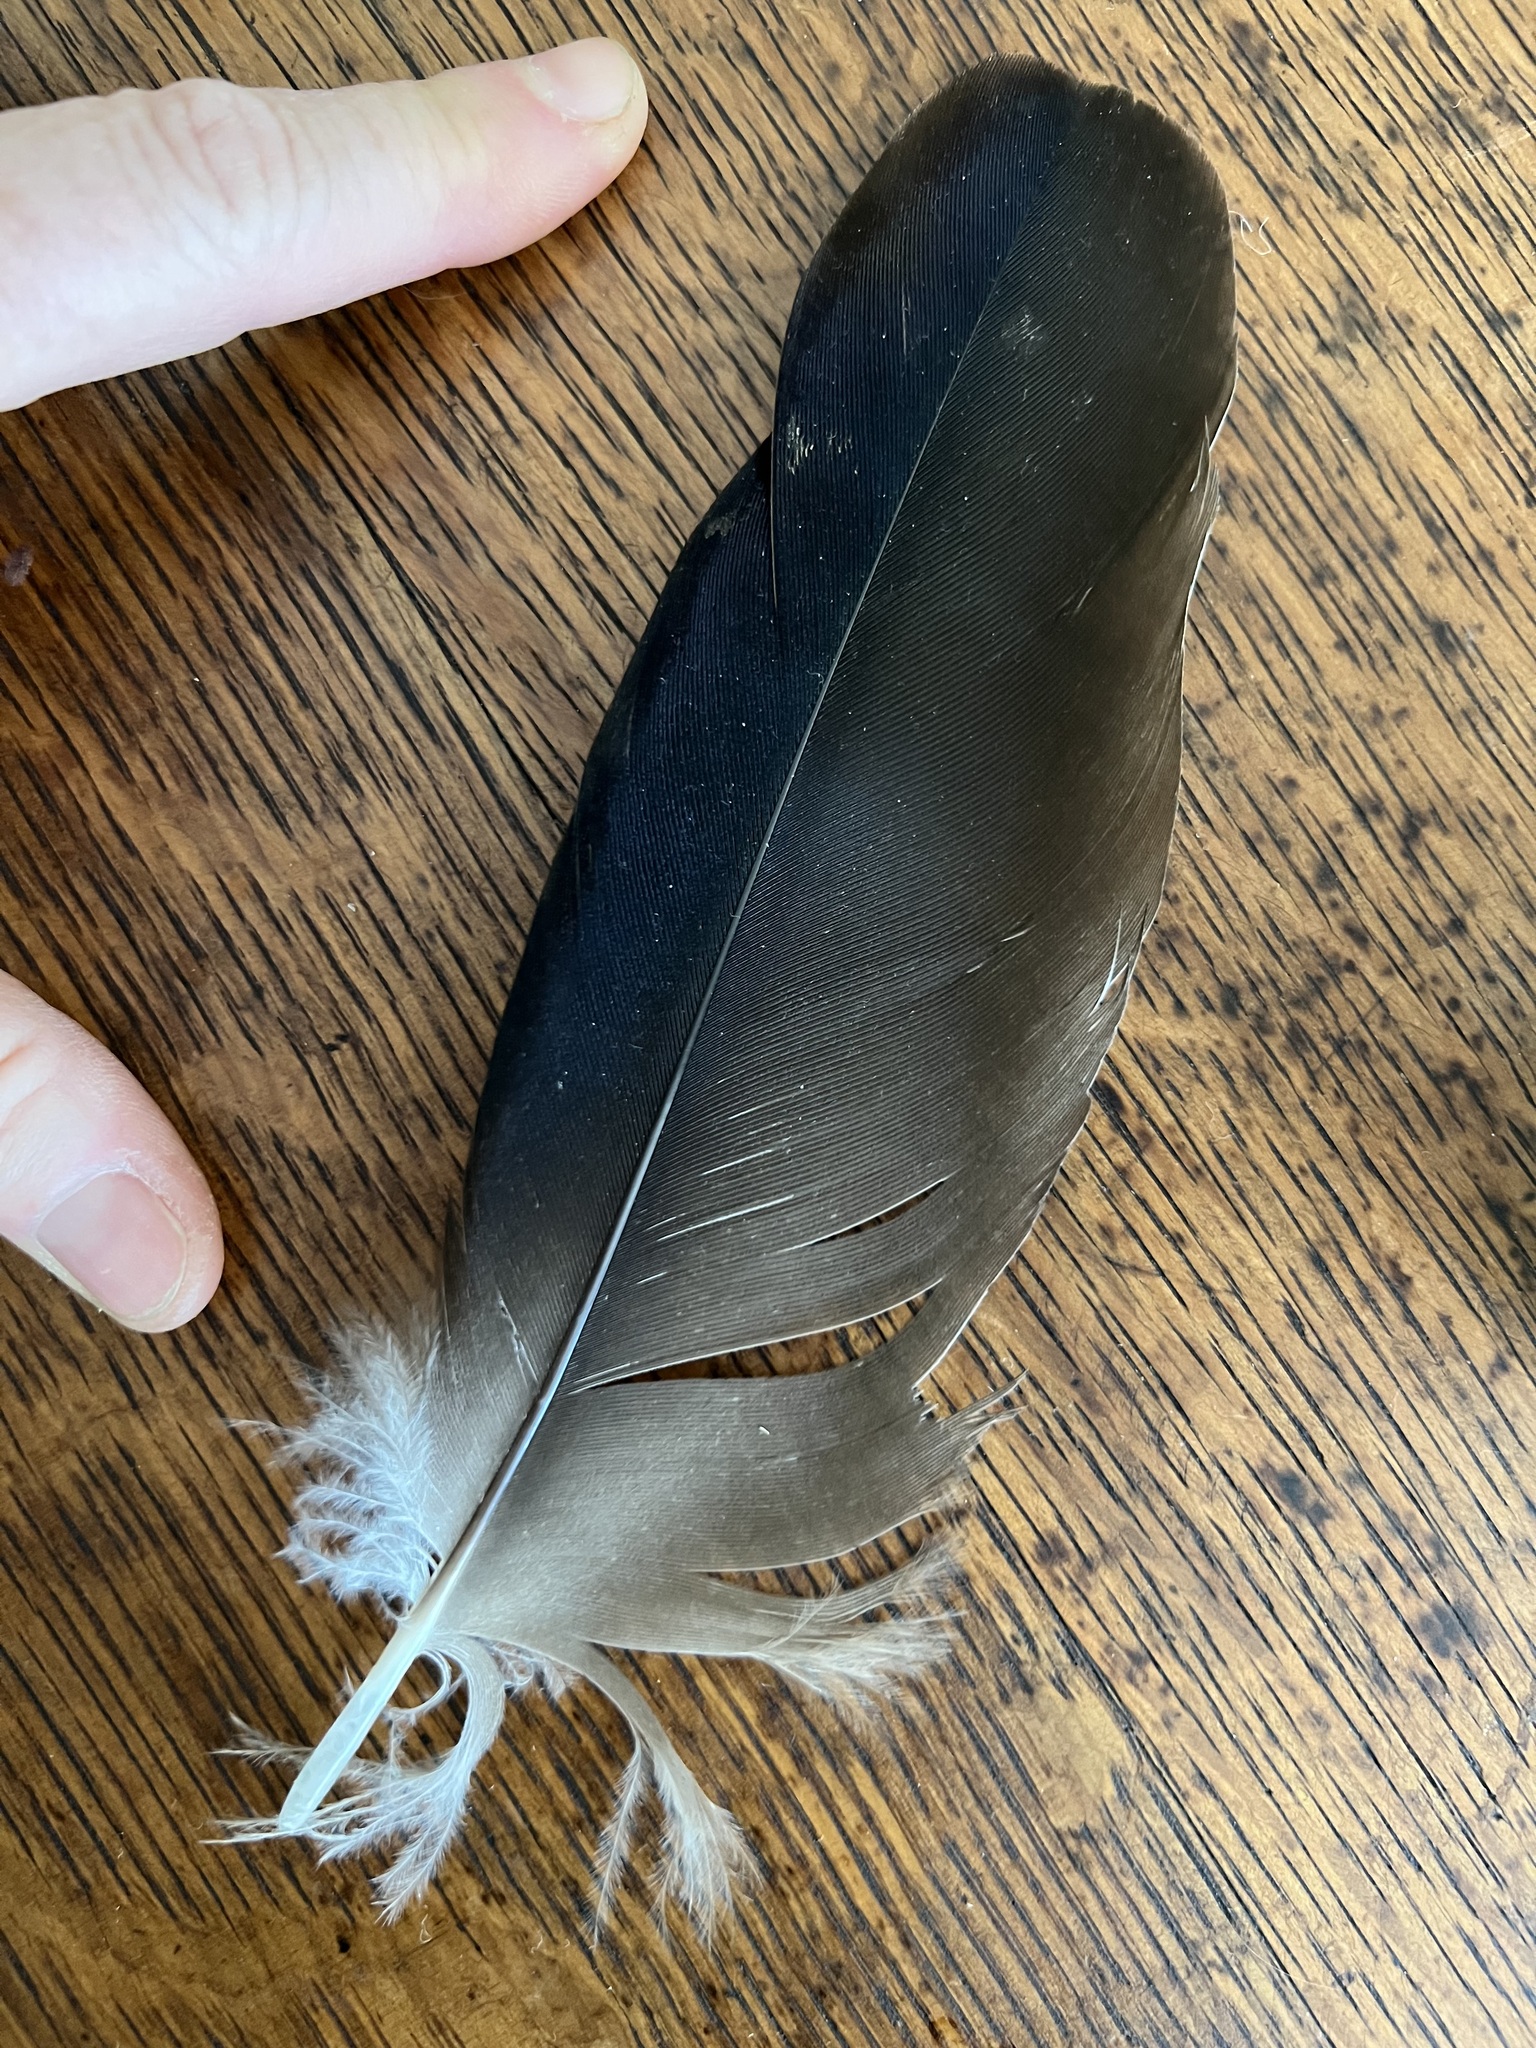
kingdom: Animalia
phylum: Chordata
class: Aves
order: Accipitriformes
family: Cathartidae
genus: Cathartes
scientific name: Cathartes aura
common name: Turkey vulture
